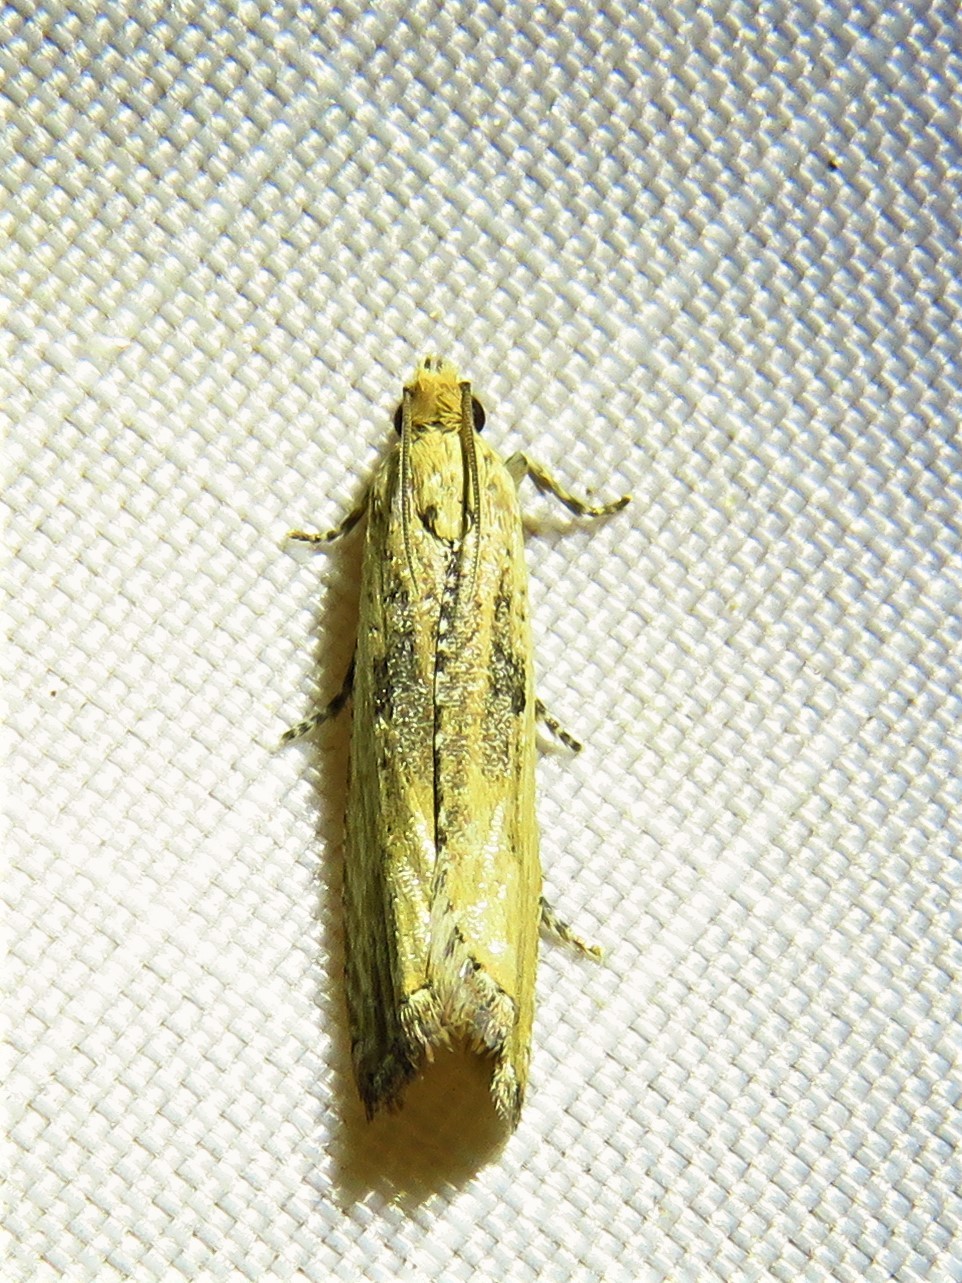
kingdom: Animalia
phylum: Arthropoda
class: Insecta
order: Lepidoptera
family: Tortricidae
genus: Bactra
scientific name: Bactra verutana
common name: Javelin moth
